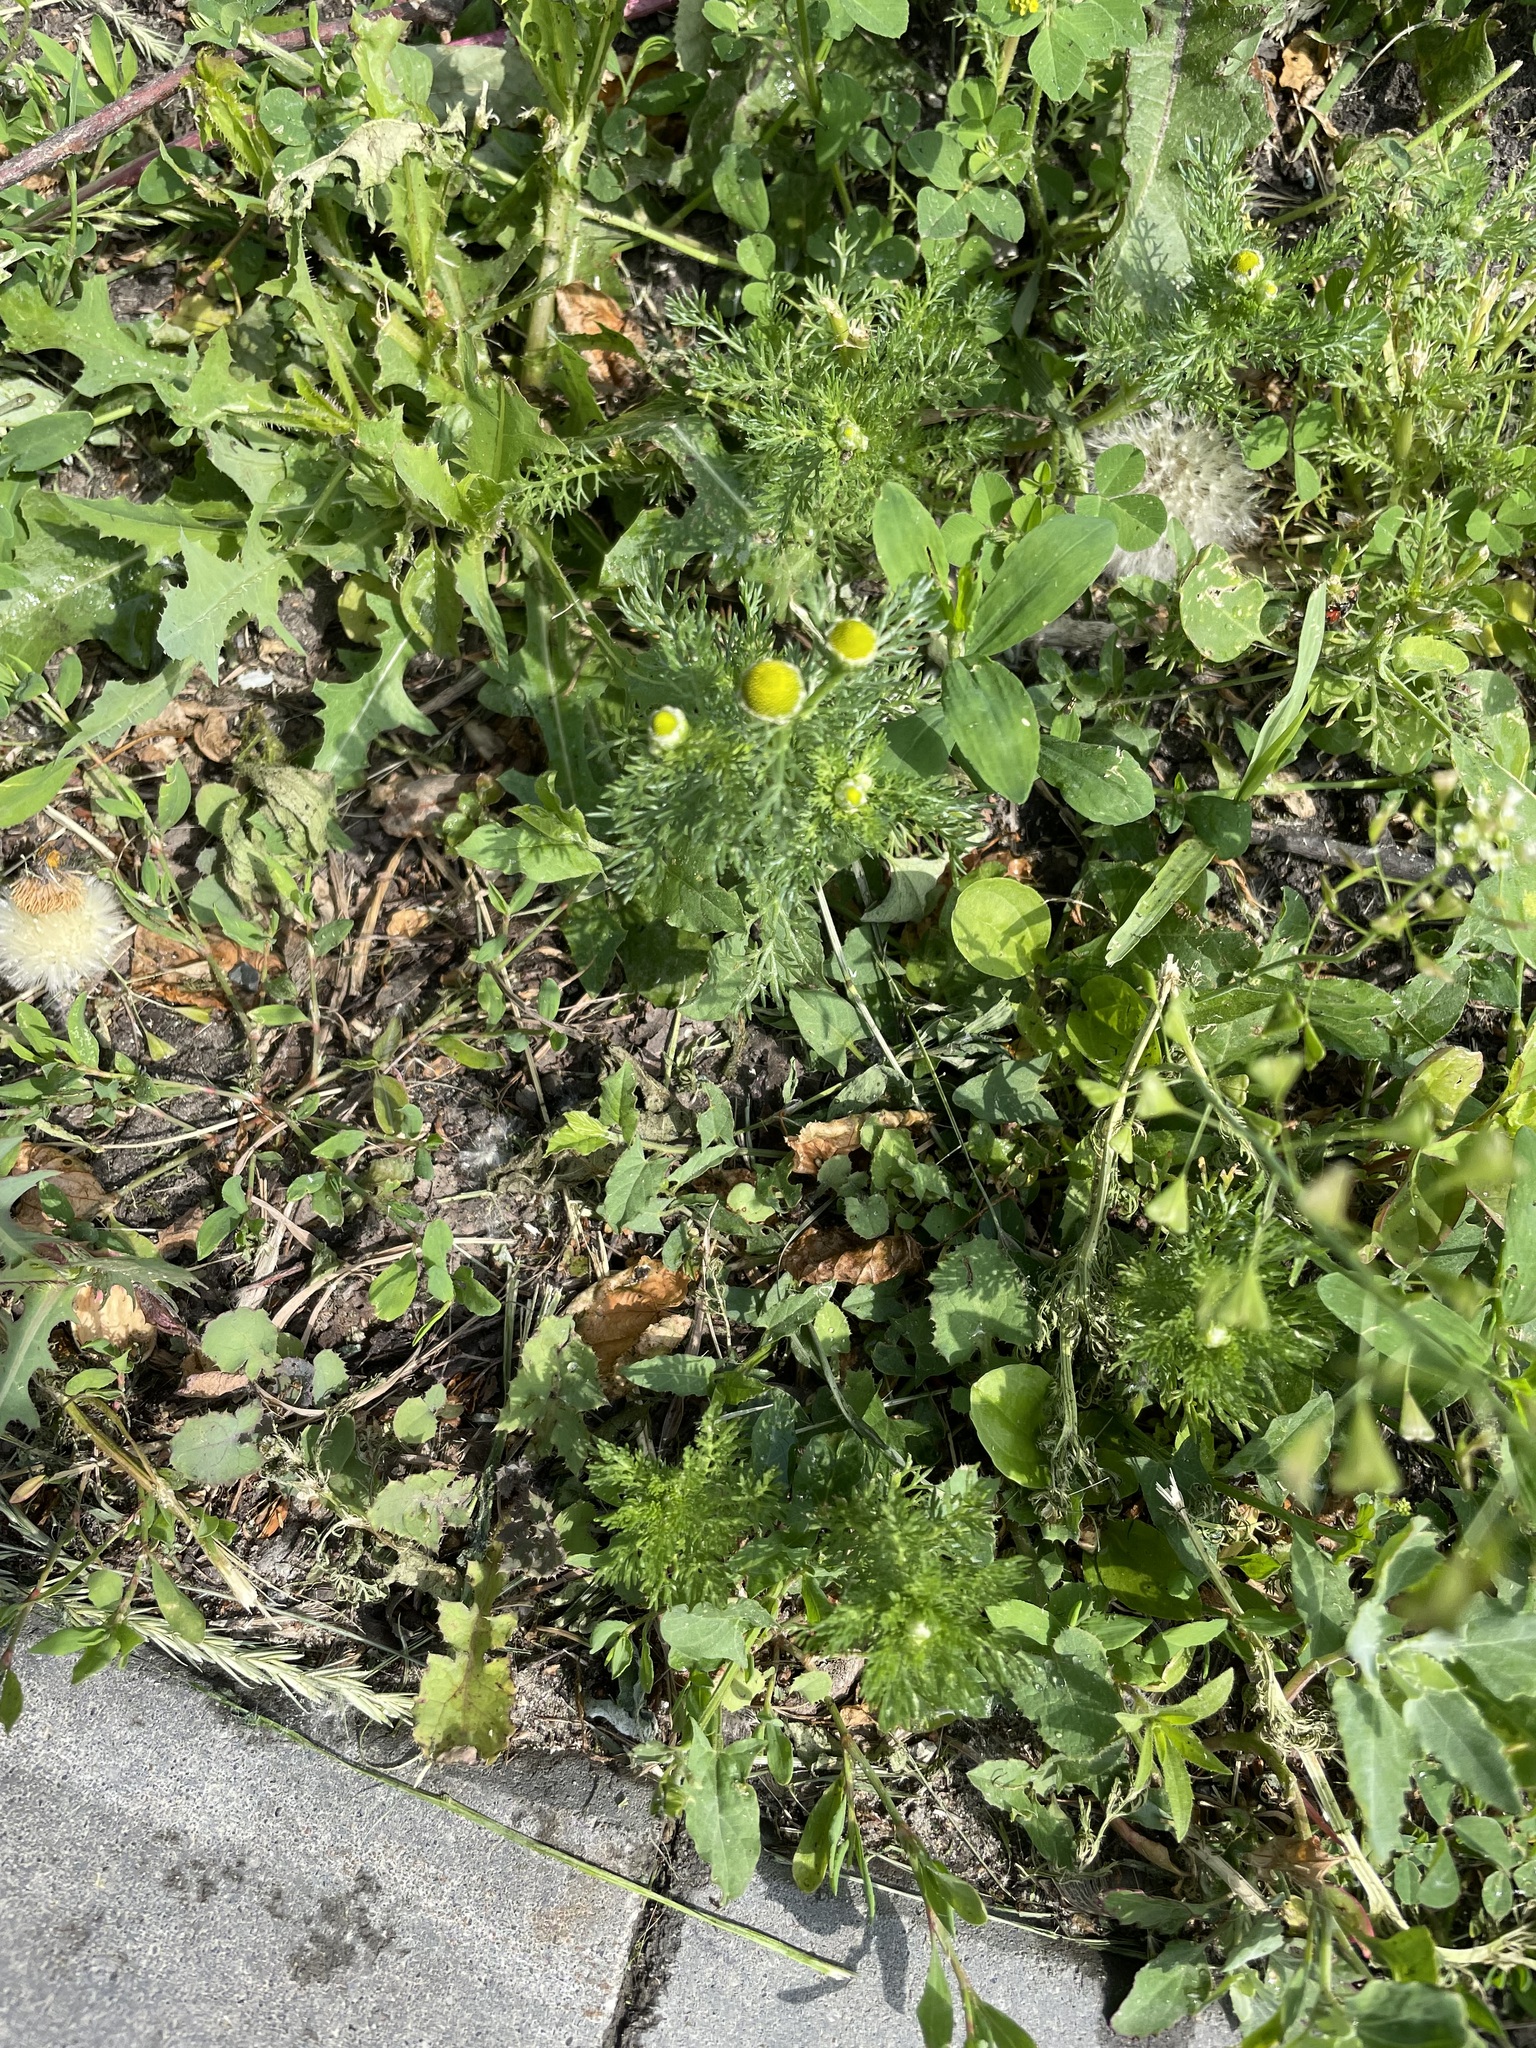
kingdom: Plantae
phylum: Tracheophyta
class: Magnoliopsida
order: Asterales
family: Asteraceae
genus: Matricaria
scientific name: Matricaria discoidea
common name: Disc mayweed
